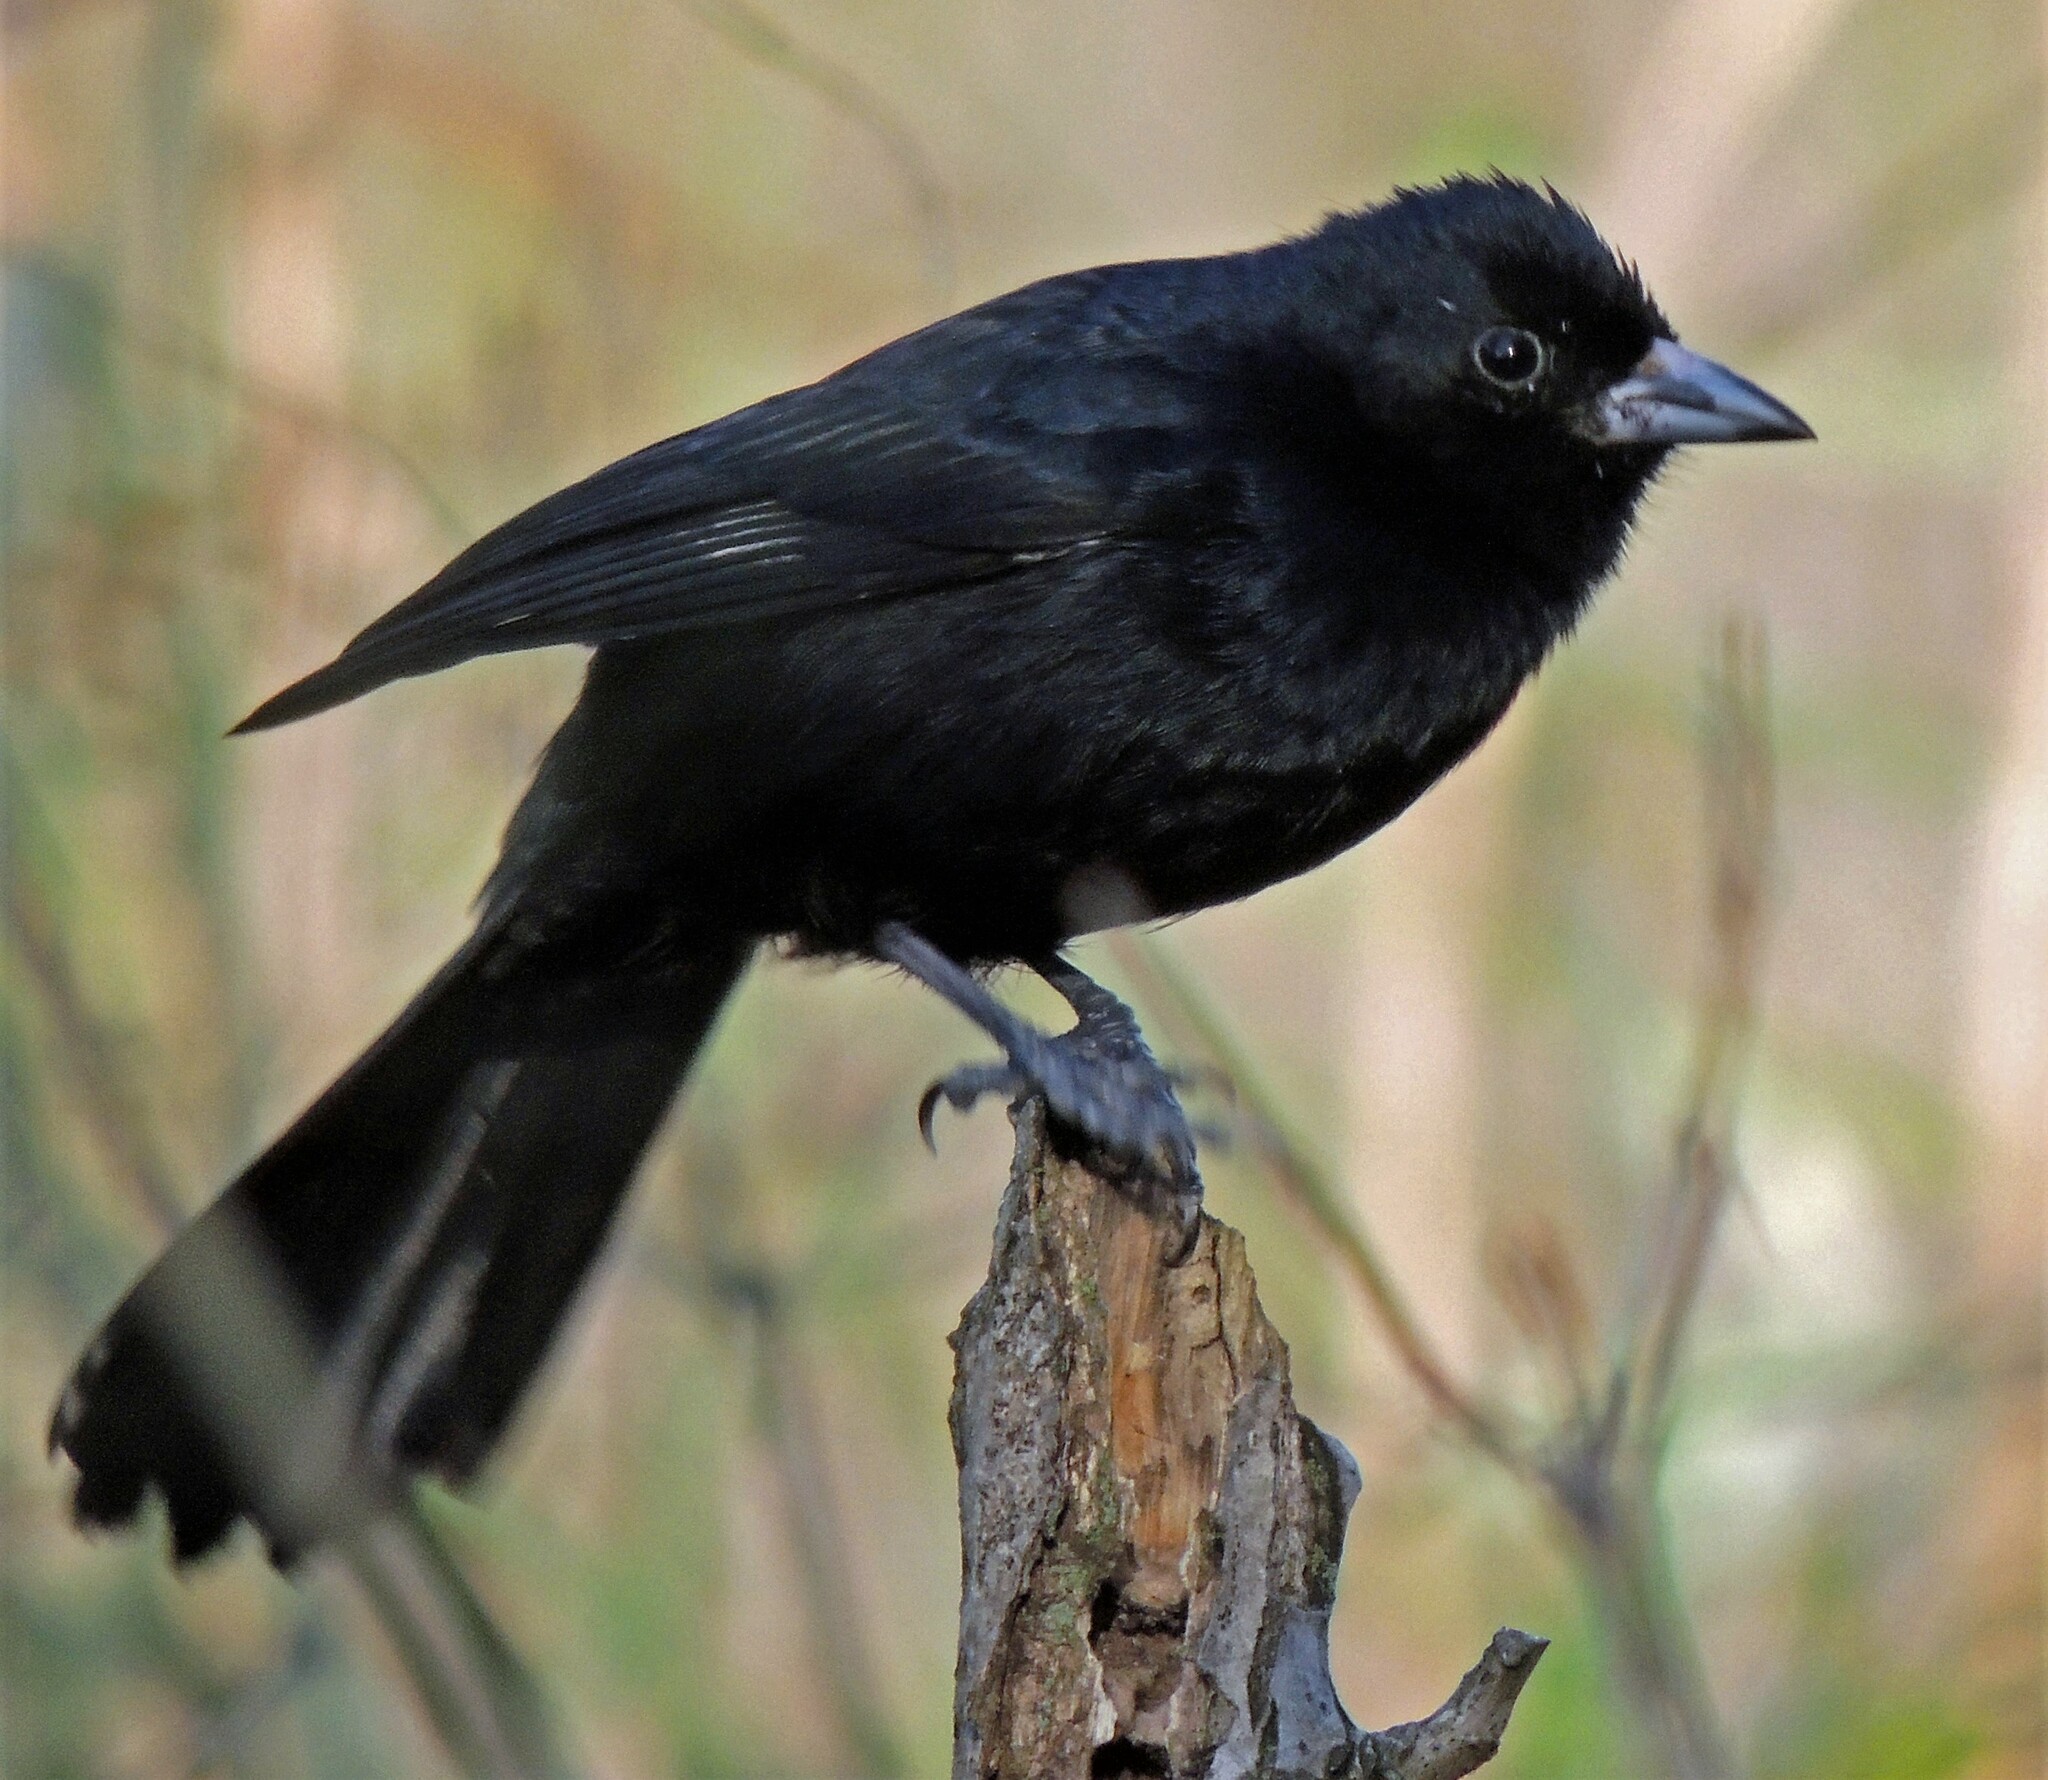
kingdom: Animalia
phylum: Chordata
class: Aves
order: Passeriformes
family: Thraupidae
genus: Tachyphonus
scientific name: Tachyphonus rufus
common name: White-lined tanager
